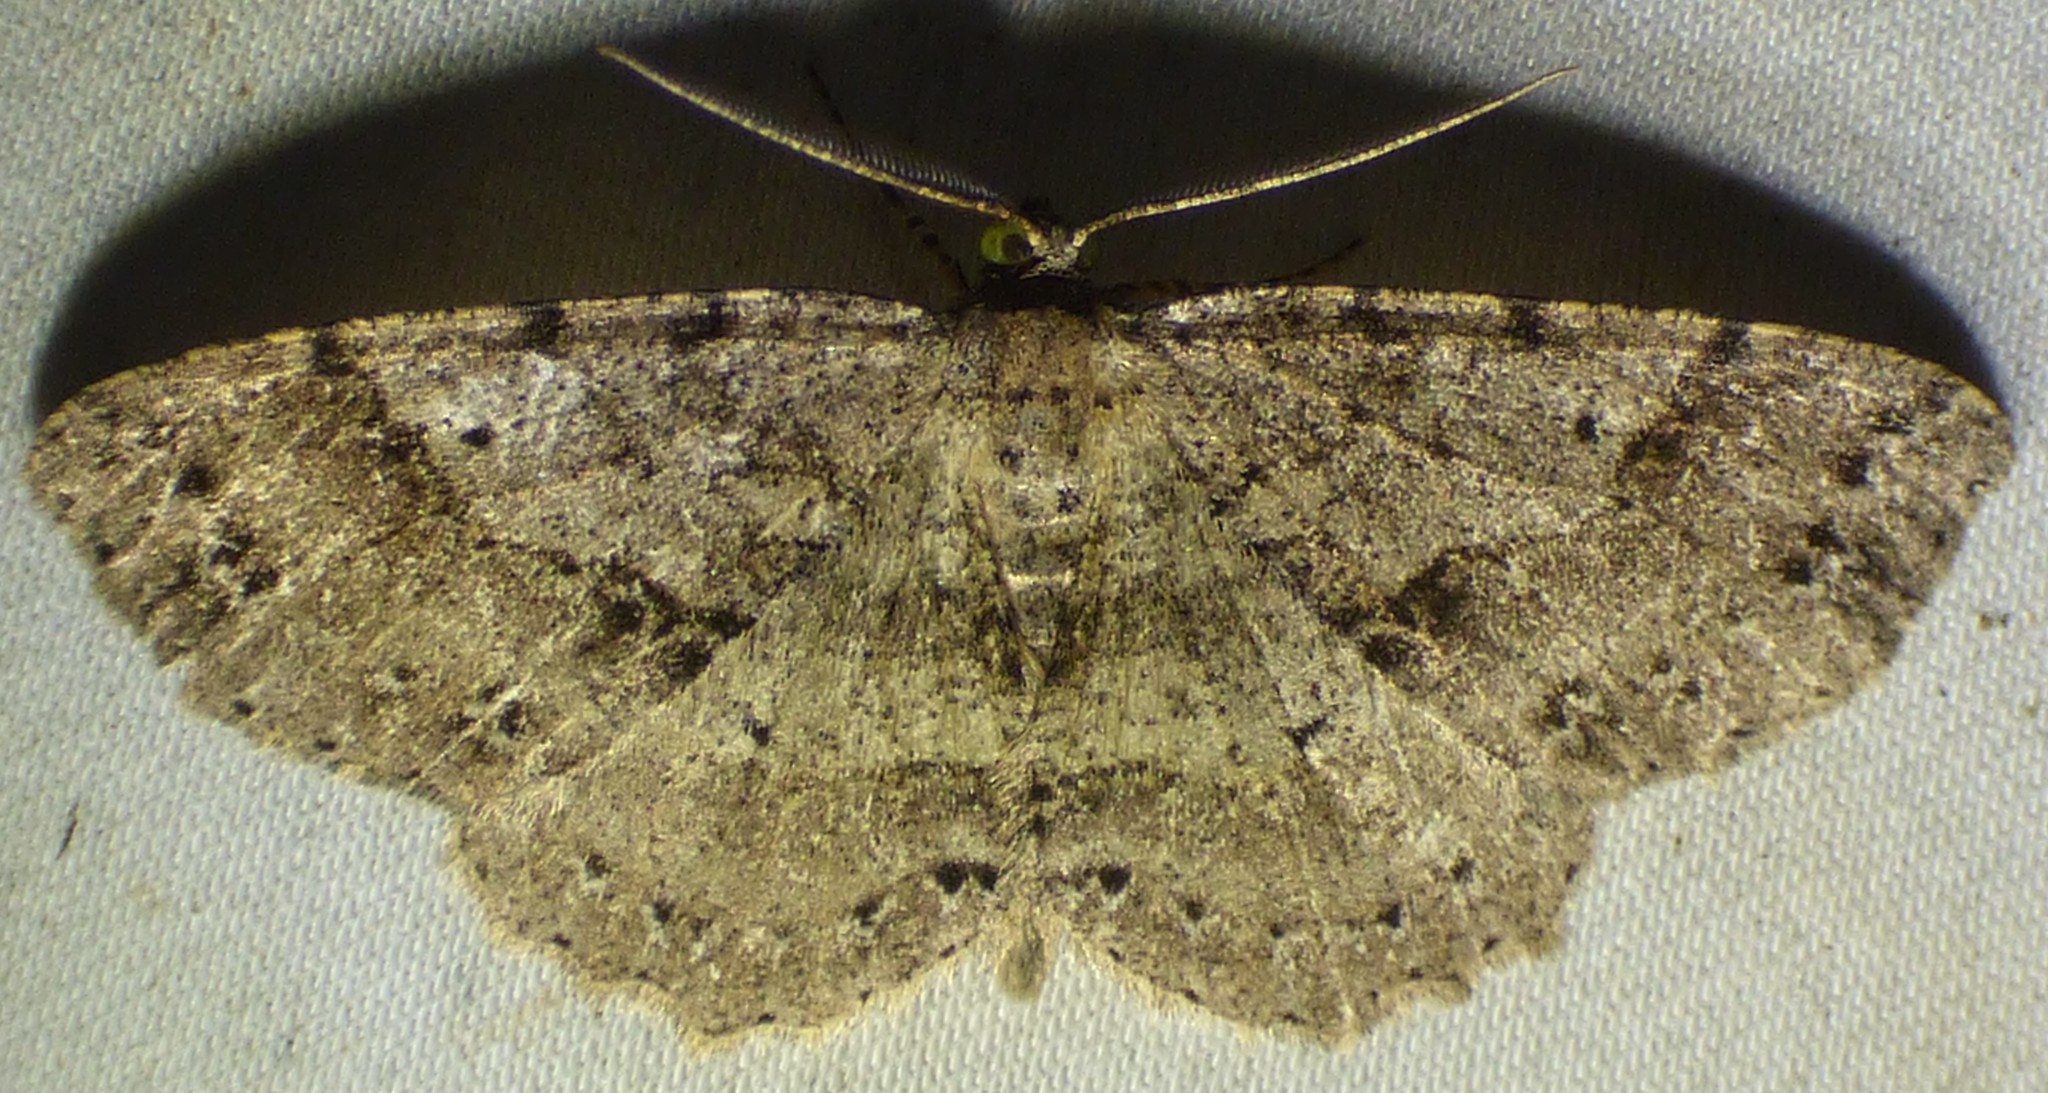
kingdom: Animalia
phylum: Arthropoda
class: Insecta
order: Lepidoptera
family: Geometridae
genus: Melanolophia
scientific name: Melanolophia canadaria
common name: Canadian melanolophia
